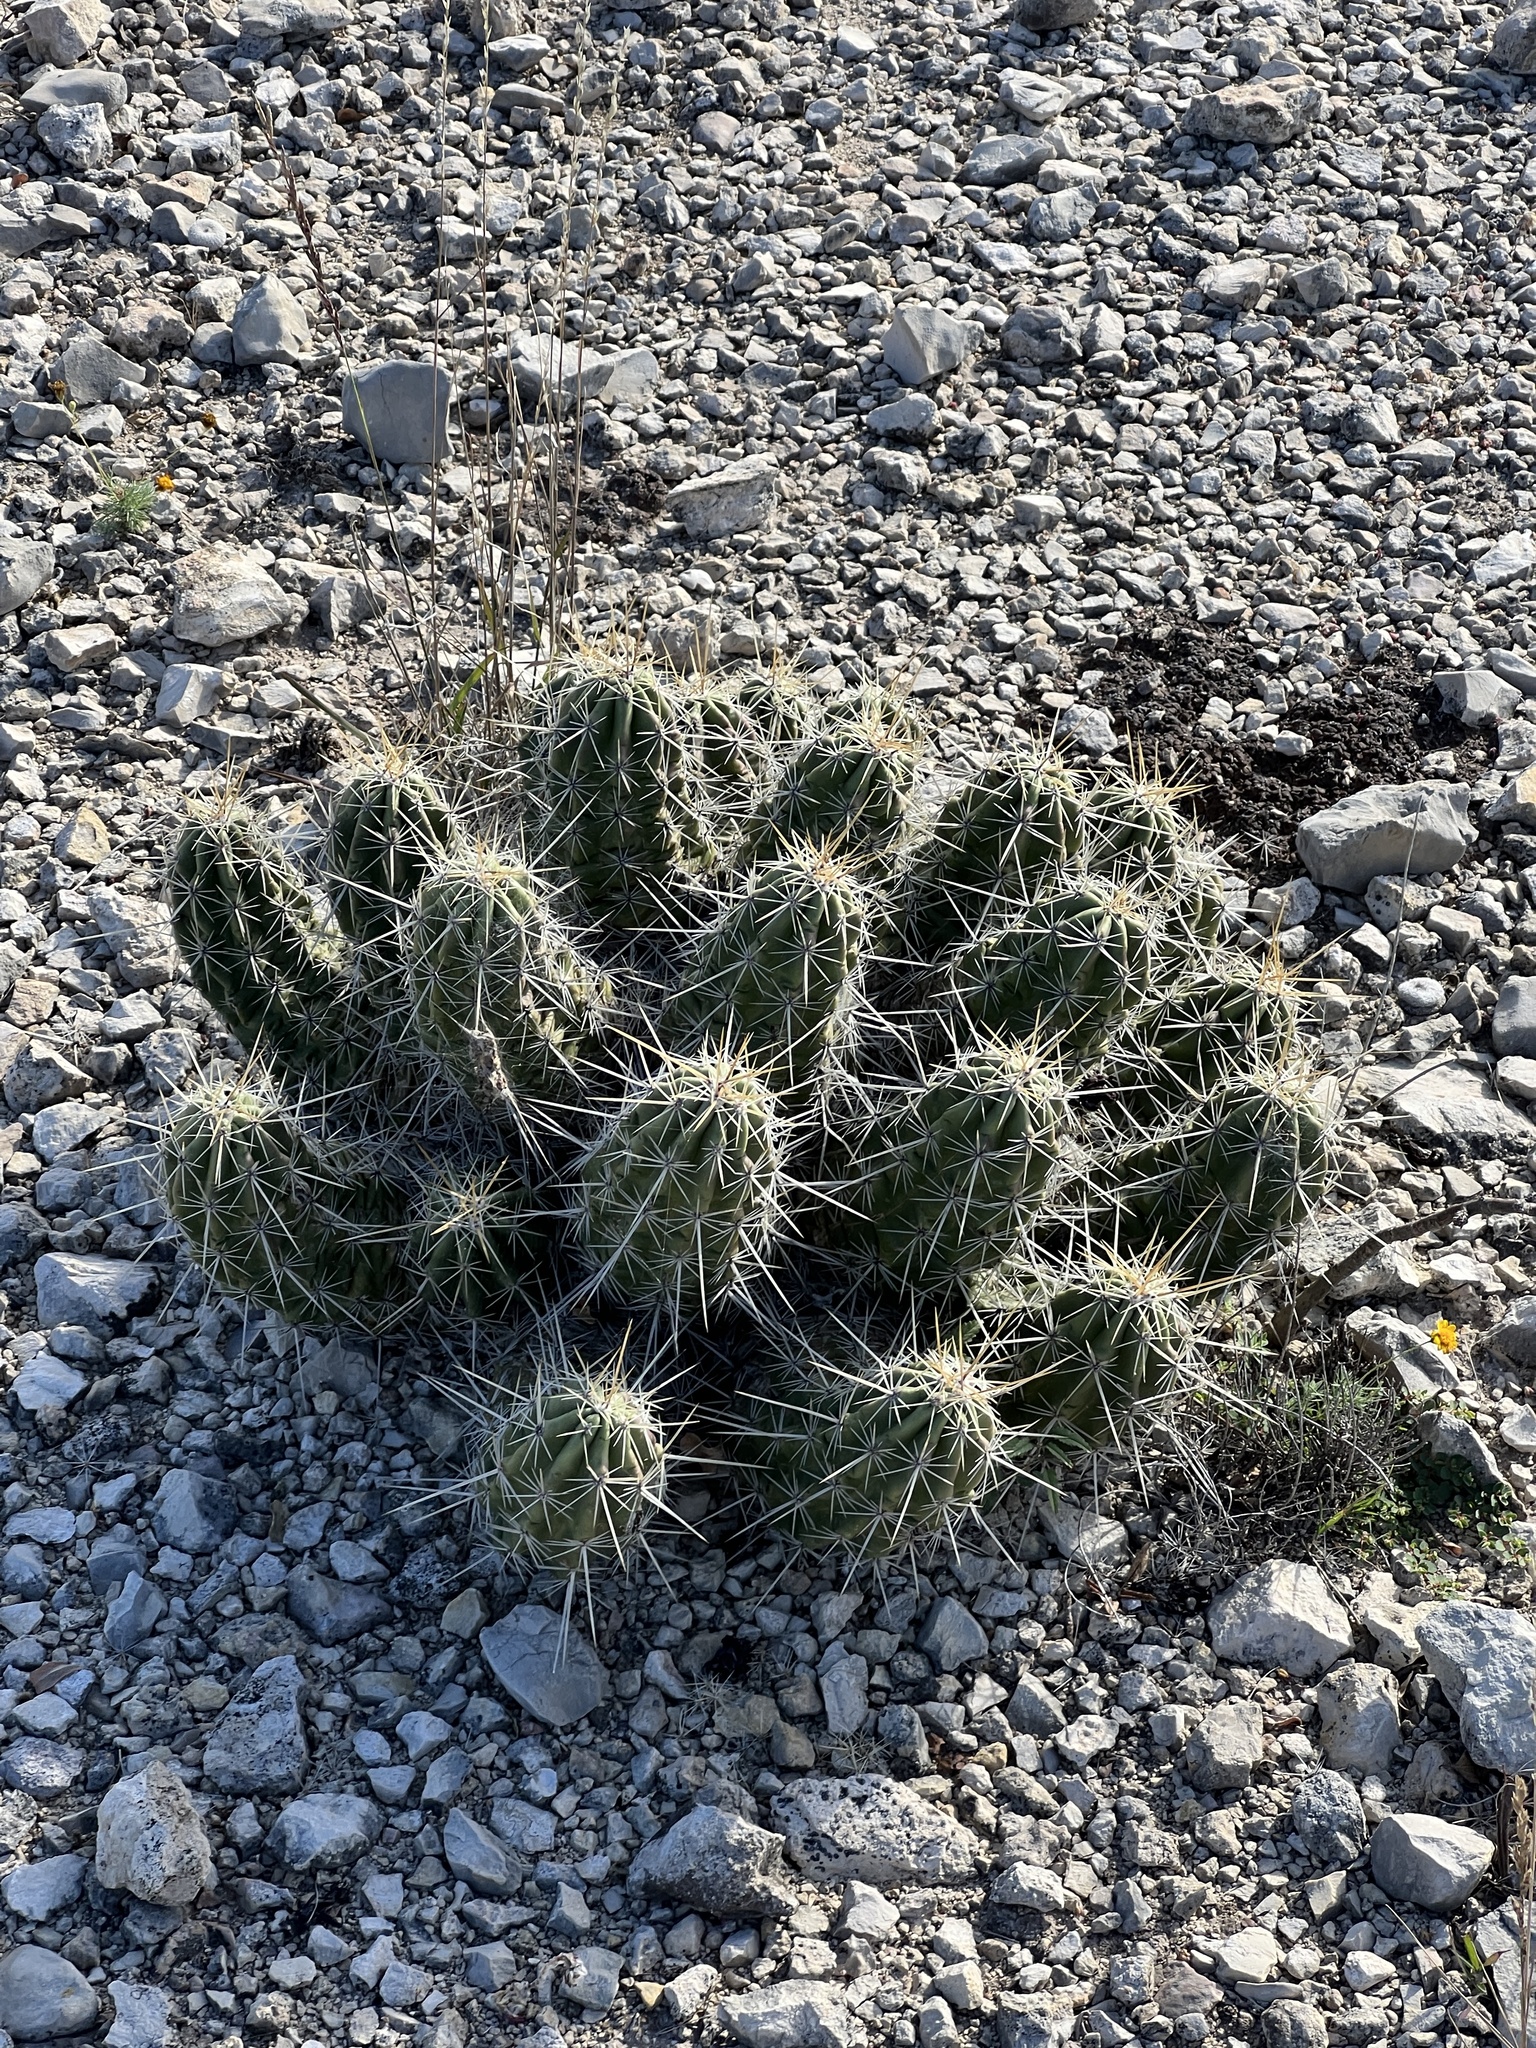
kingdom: Plantae
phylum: Tracheophyta
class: Magnoliopsida
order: Caryophyllales
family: Cactaceae
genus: Echinocereus
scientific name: Echinocereus enneacanthus
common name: Pitaya
